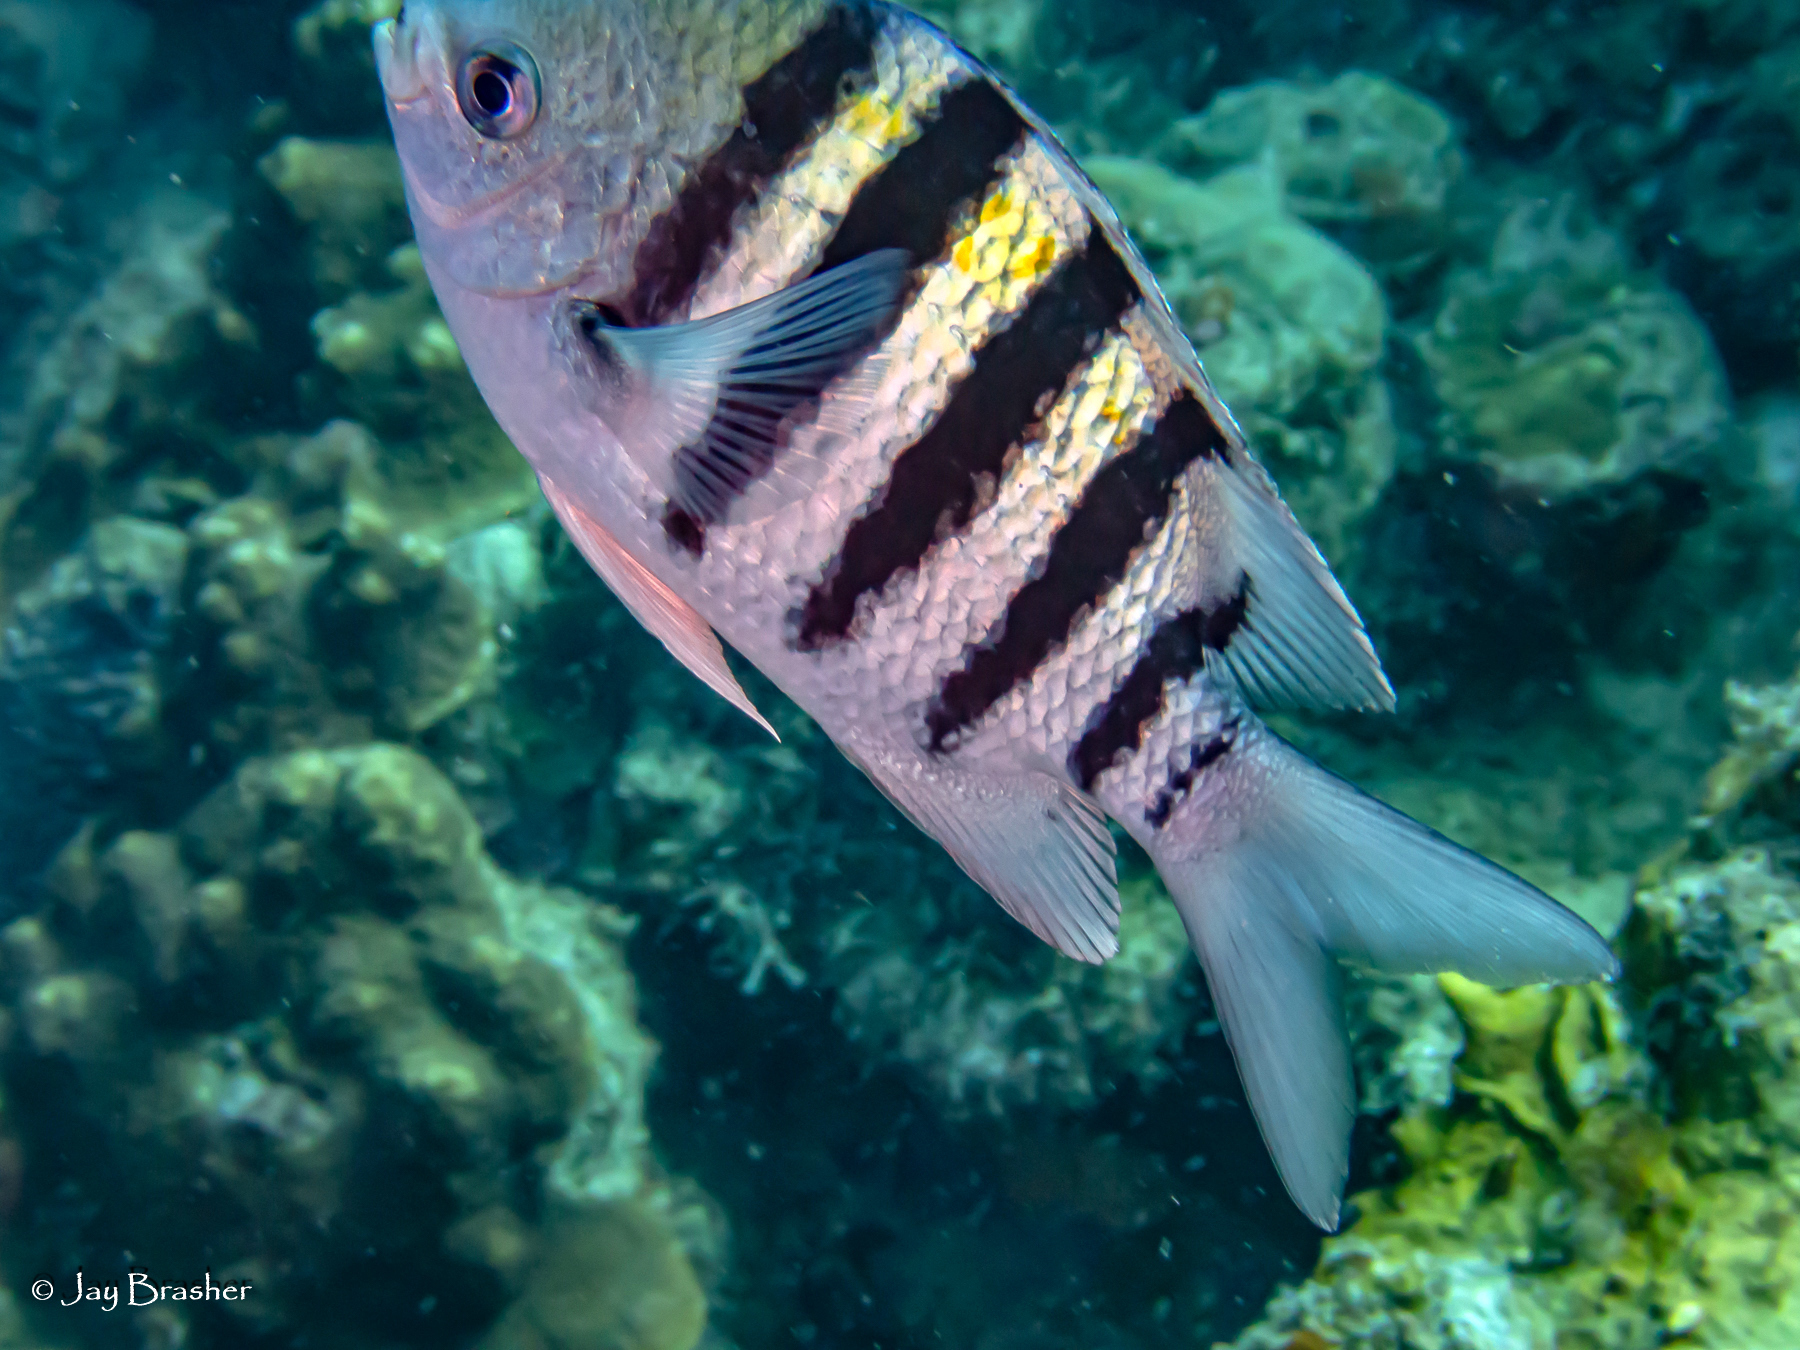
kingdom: Animalia
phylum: Chordata
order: Perciformes
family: Pomacentridae
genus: Abudefduf
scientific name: Abudefduf saxatilis
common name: Sergeant major
